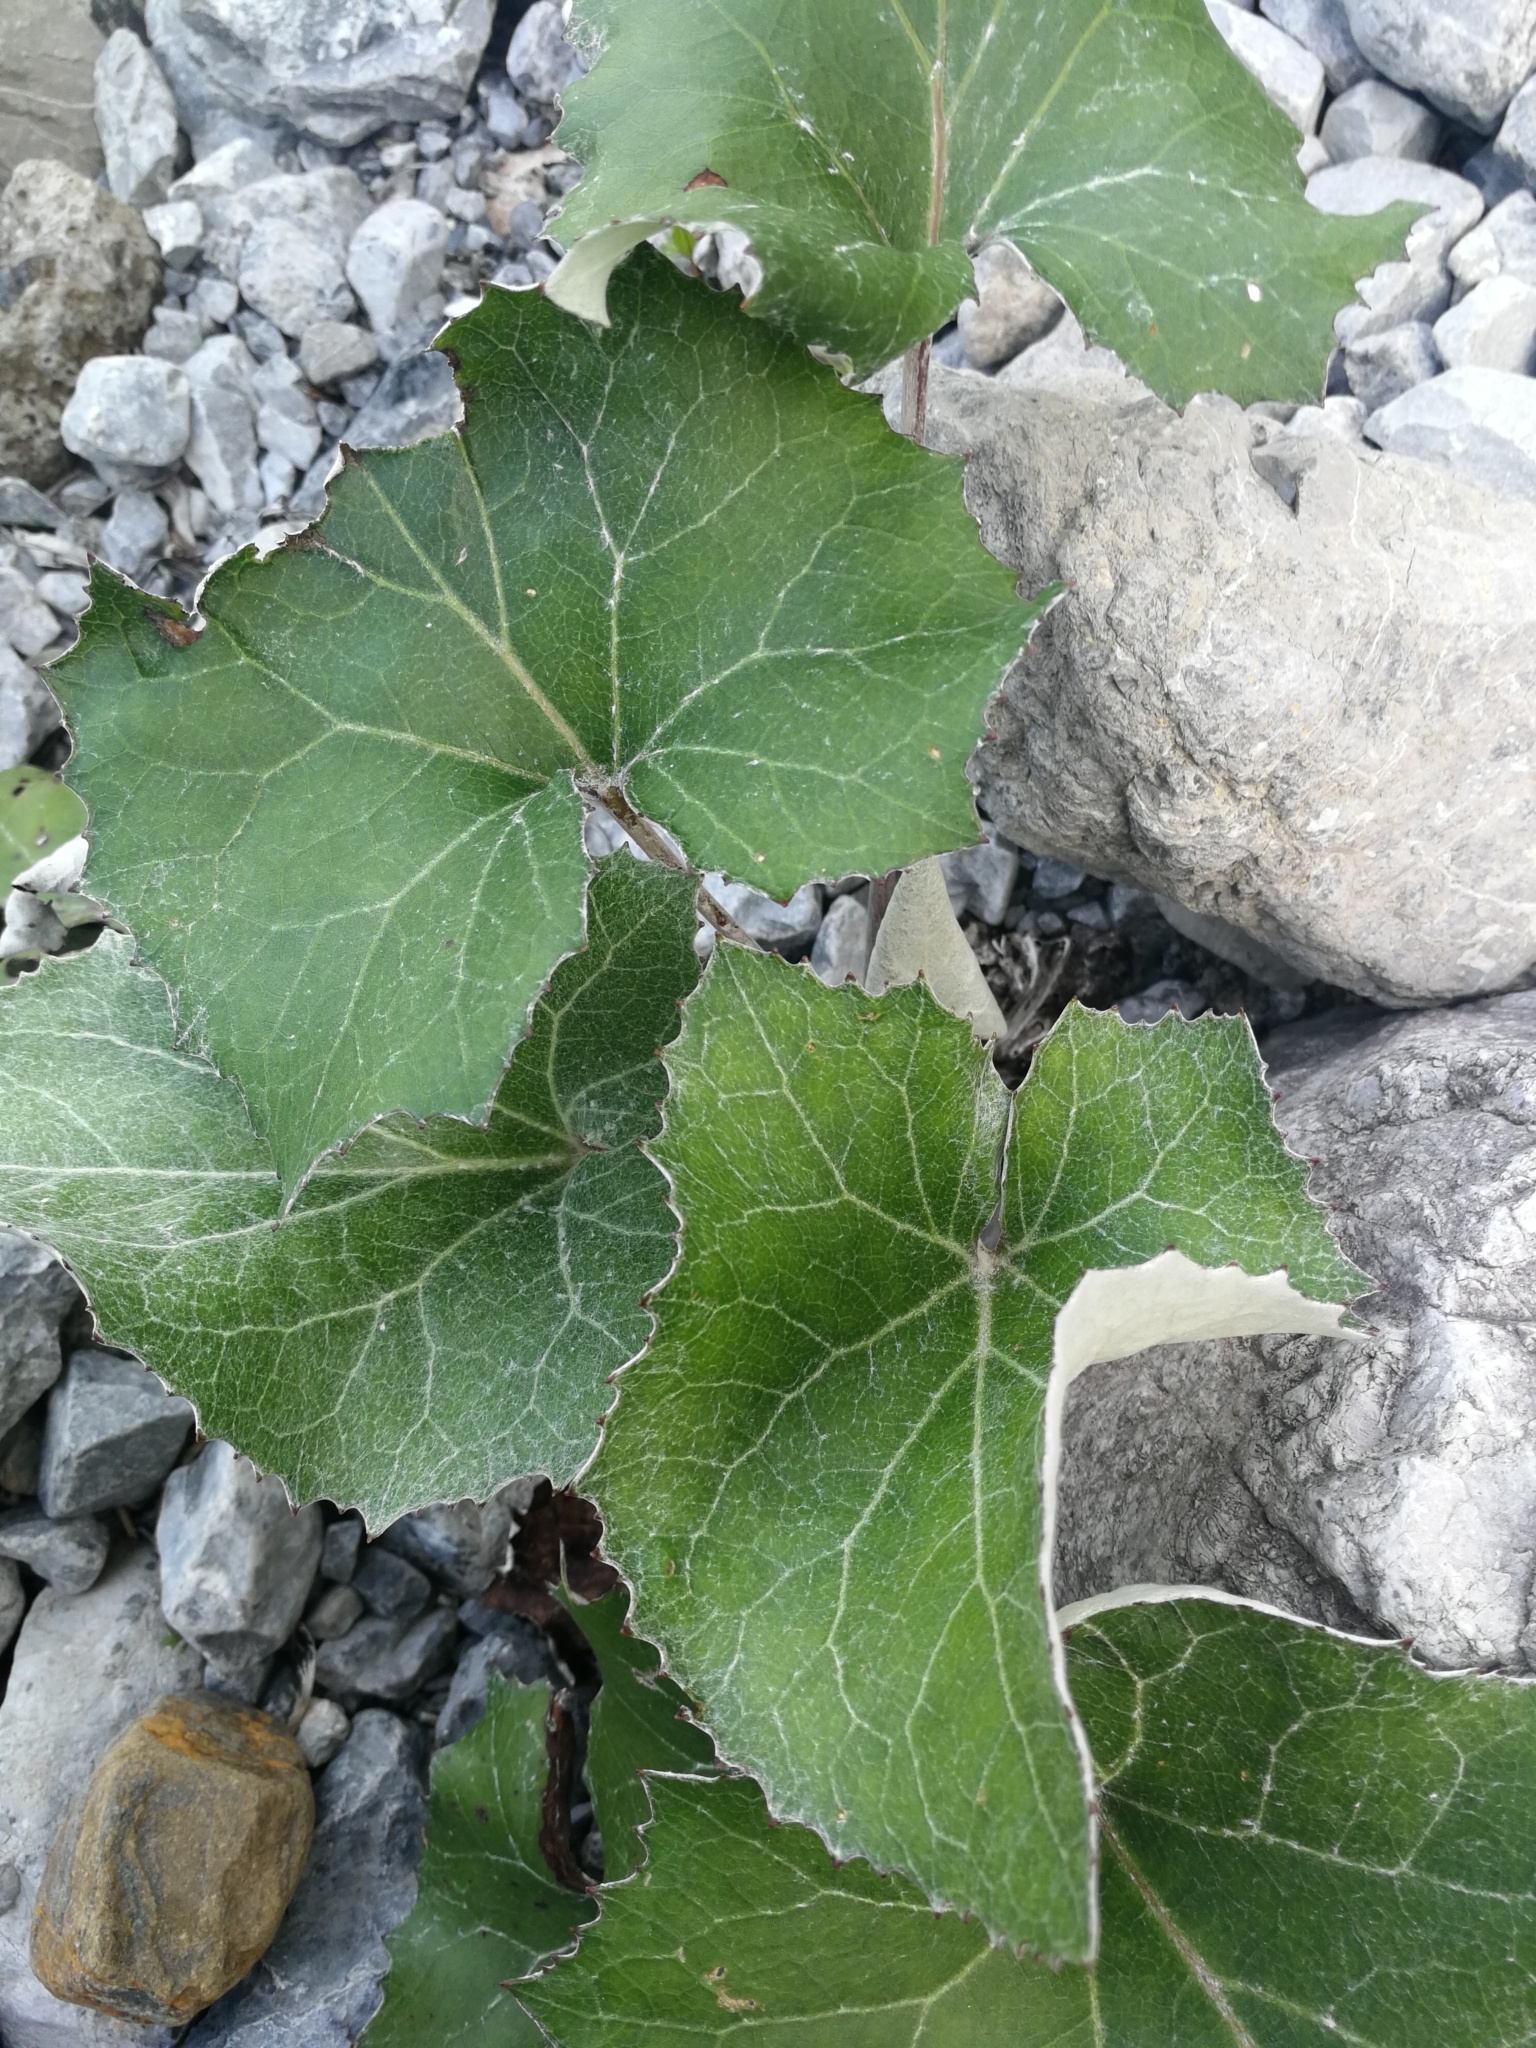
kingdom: Plantae
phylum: Tracheophyta
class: Magnoliopsida
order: Asterales
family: Asteraceae
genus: Petasites
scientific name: Petasites paradoxus
